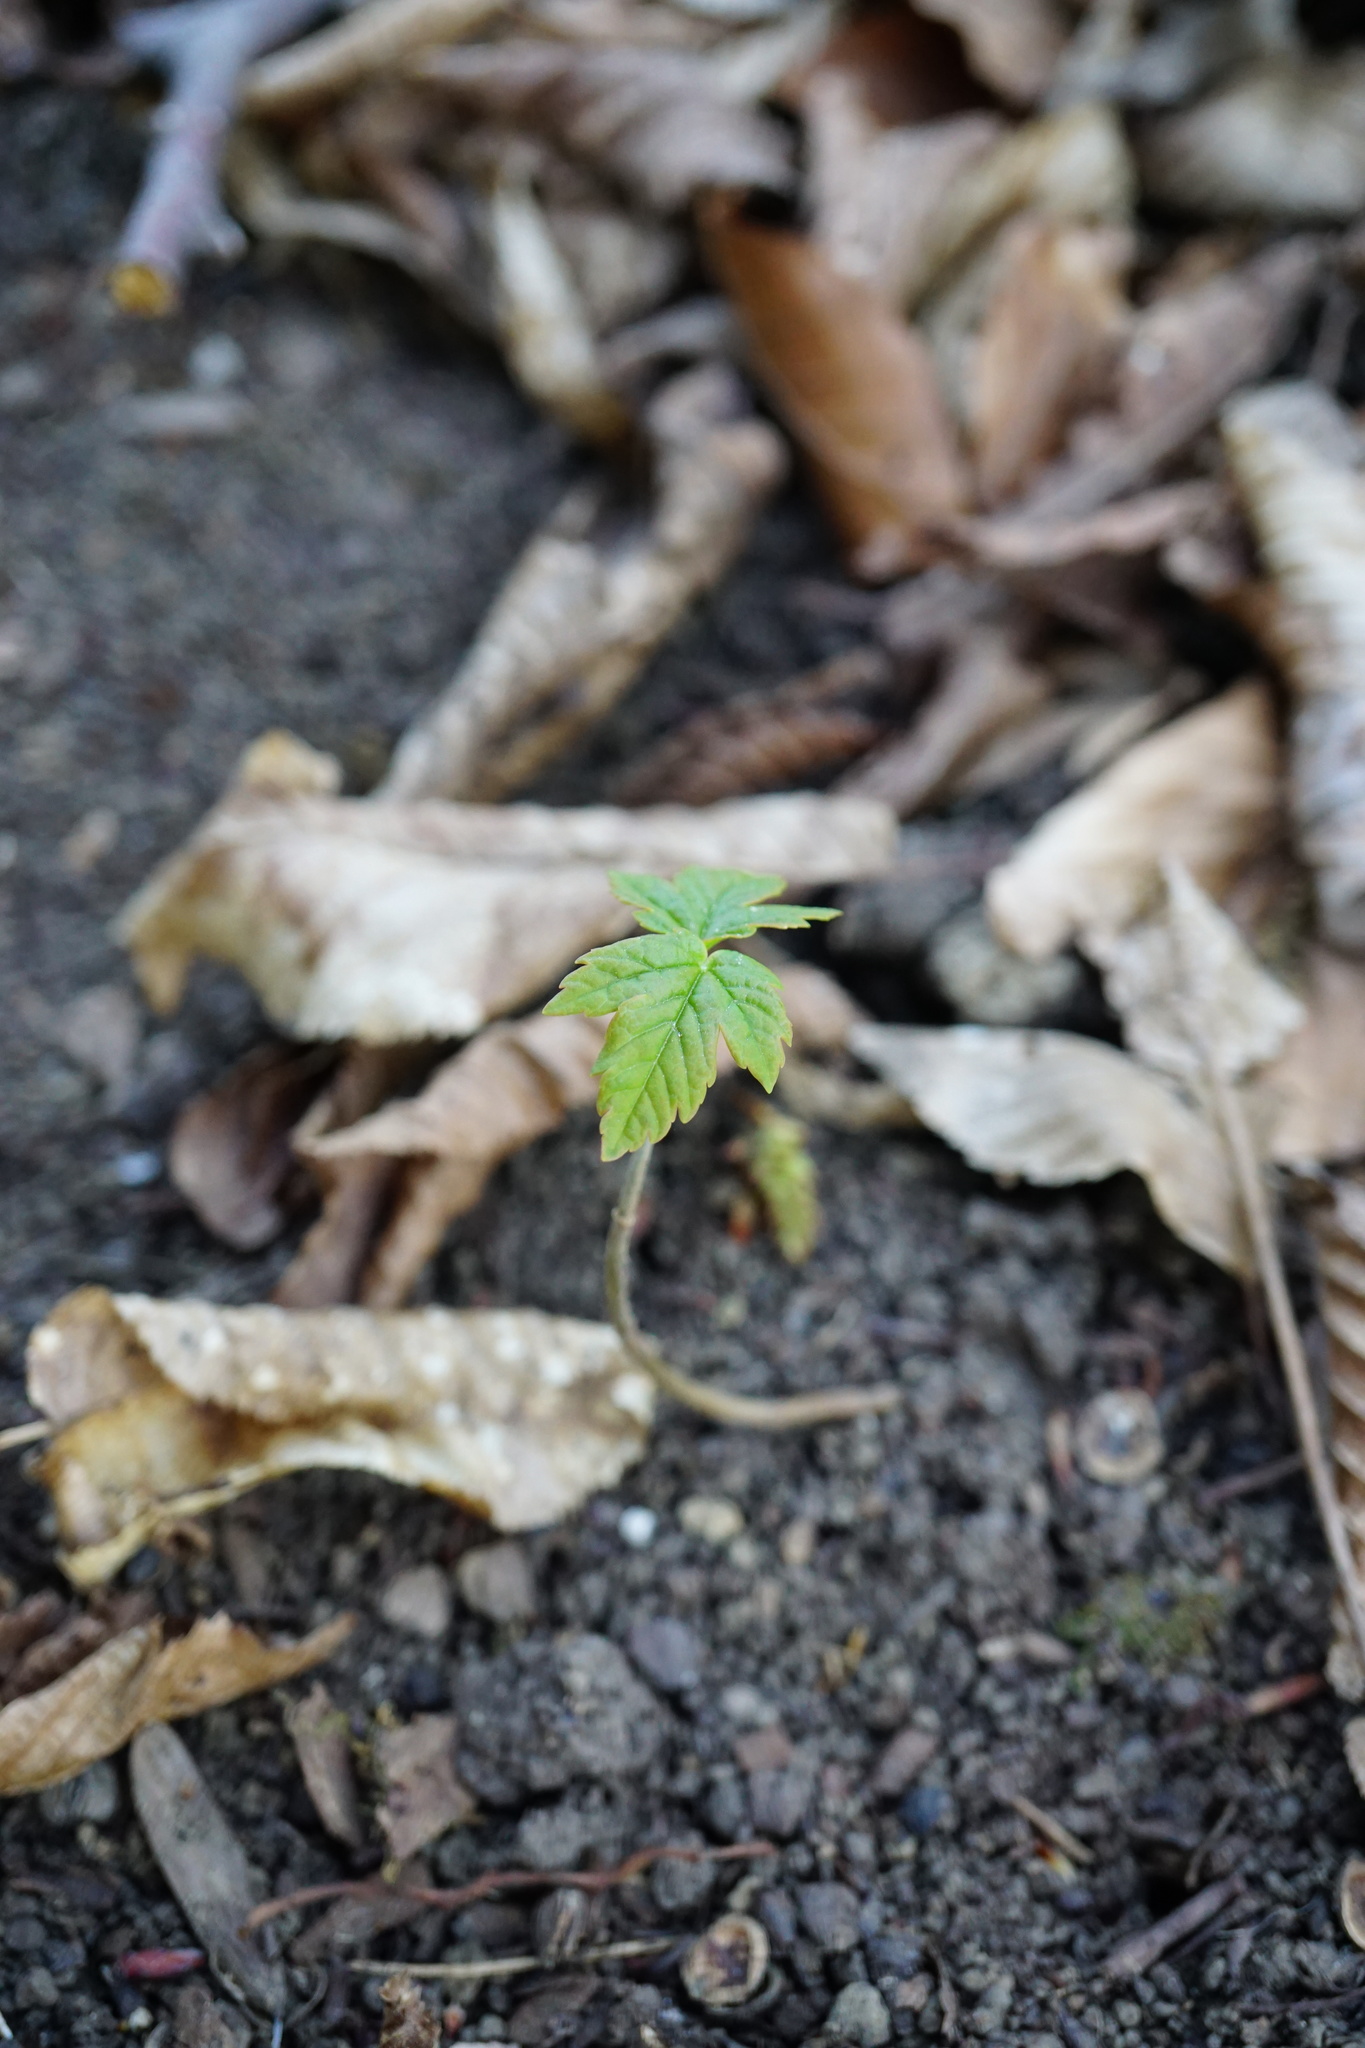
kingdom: Plantae
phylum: Tracheophyta
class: Magnoliopsida
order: Sapindales
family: Sapindaceae
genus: Acer
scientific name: Acer pseudoplatanus
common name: Sycamore
